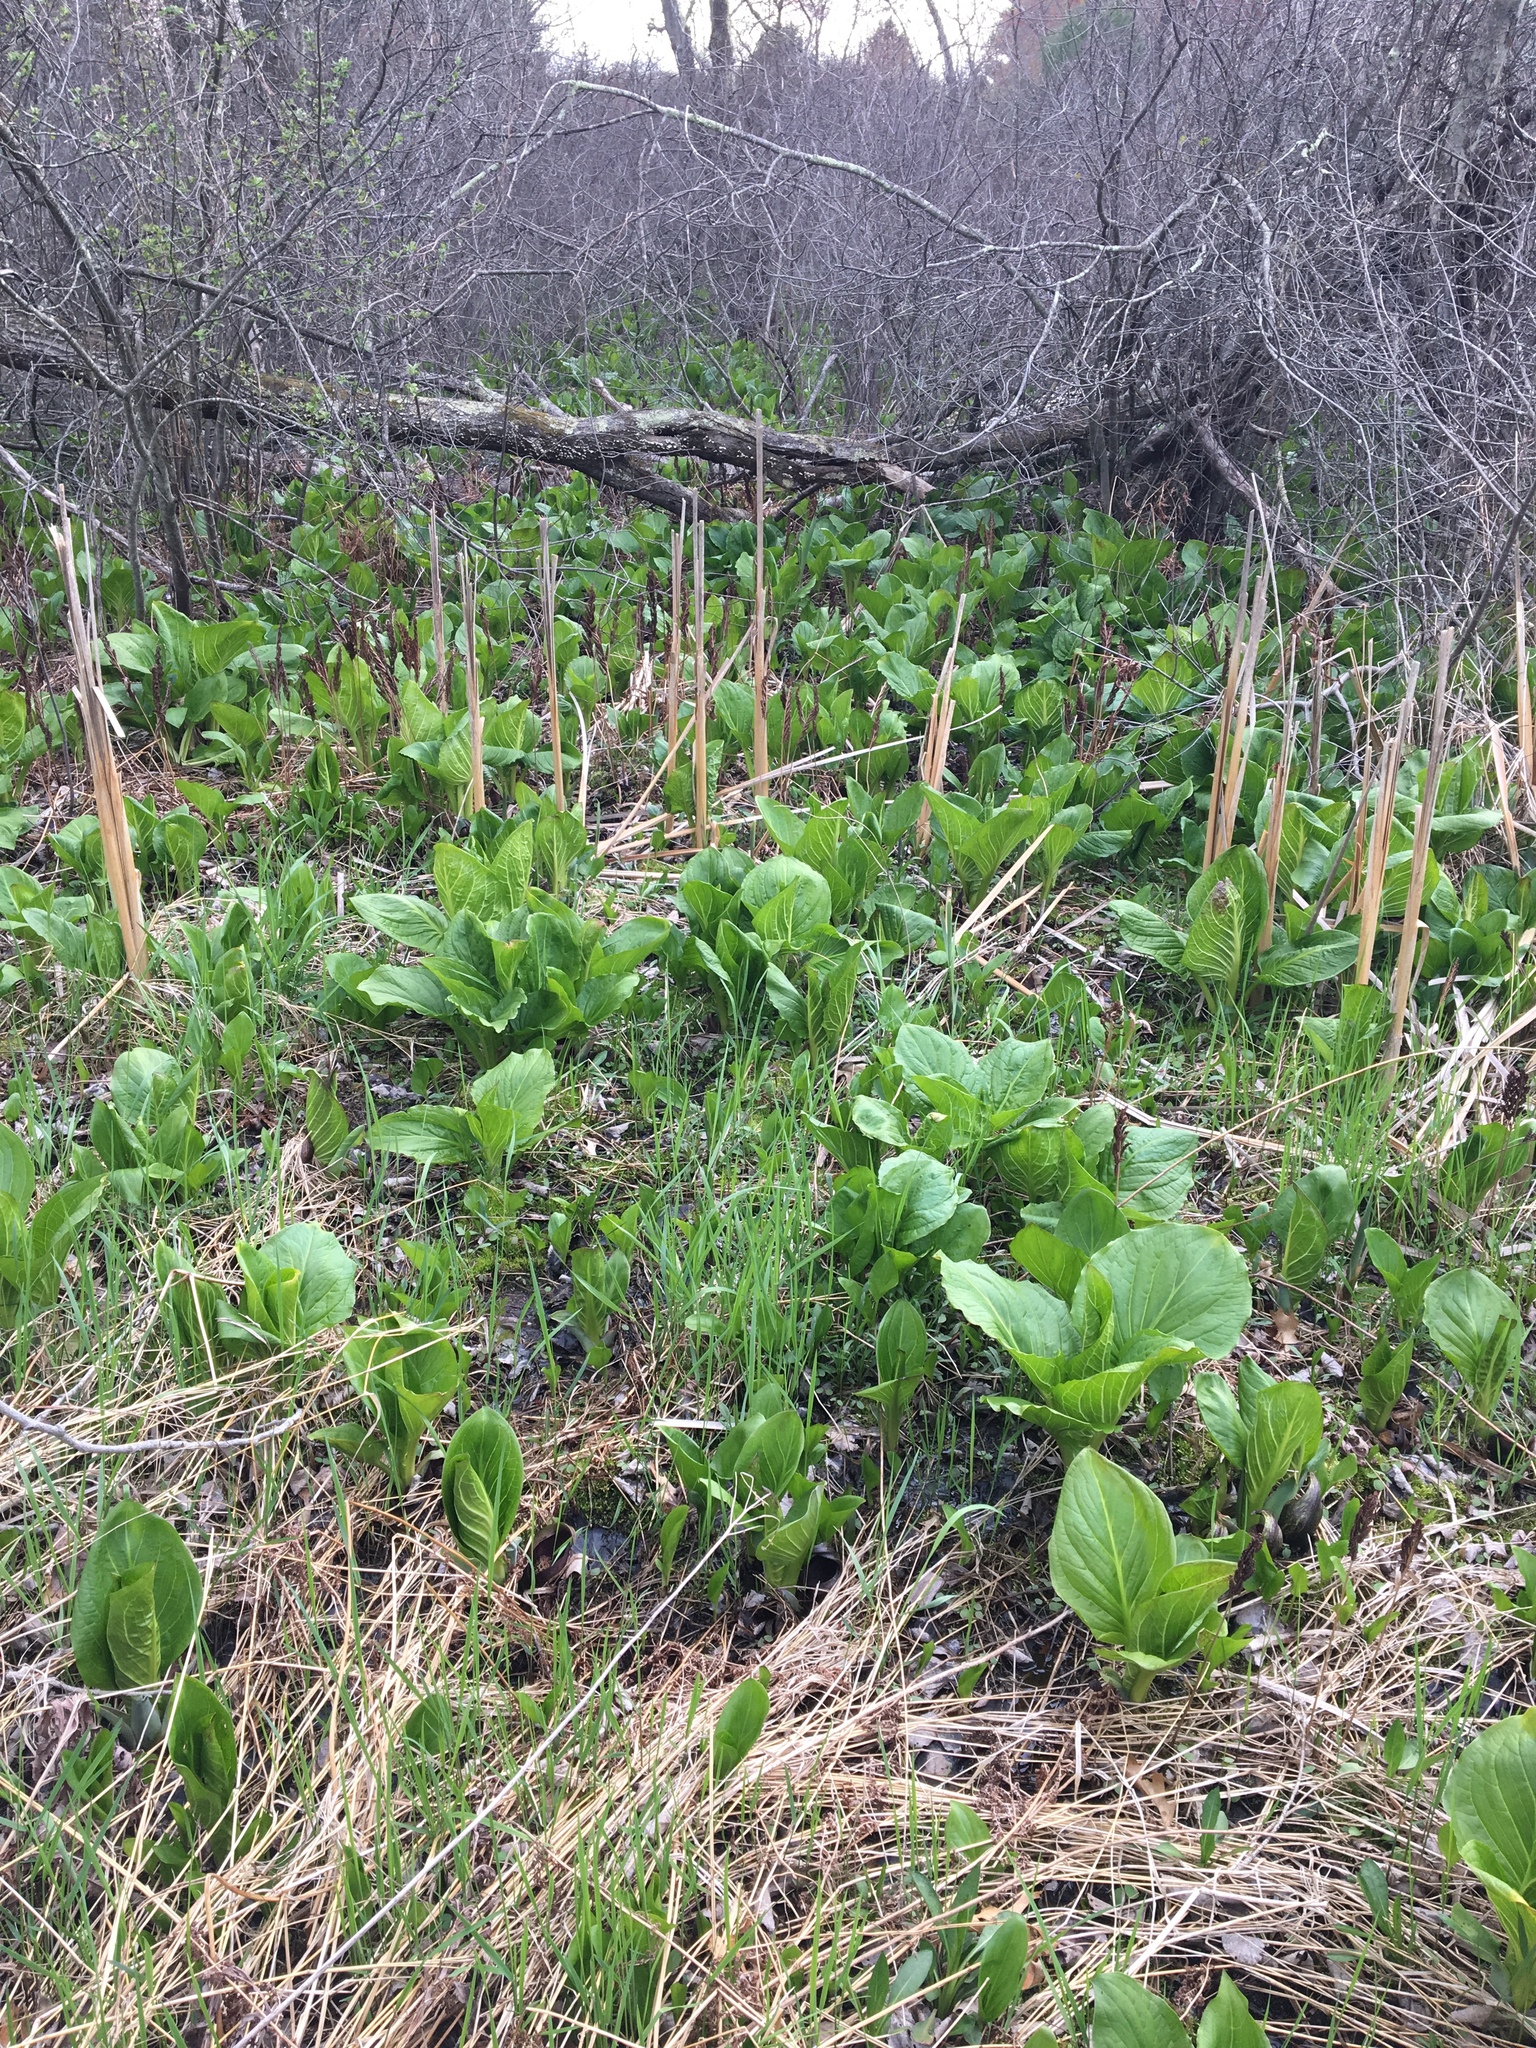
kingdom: Plantae
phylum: Tracheophyta
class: Liliopsida
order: Alismatales
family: Araceae
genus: Symplocarpus
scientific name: Symplocarpus foetidus
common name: Eastern skunk cabbage
